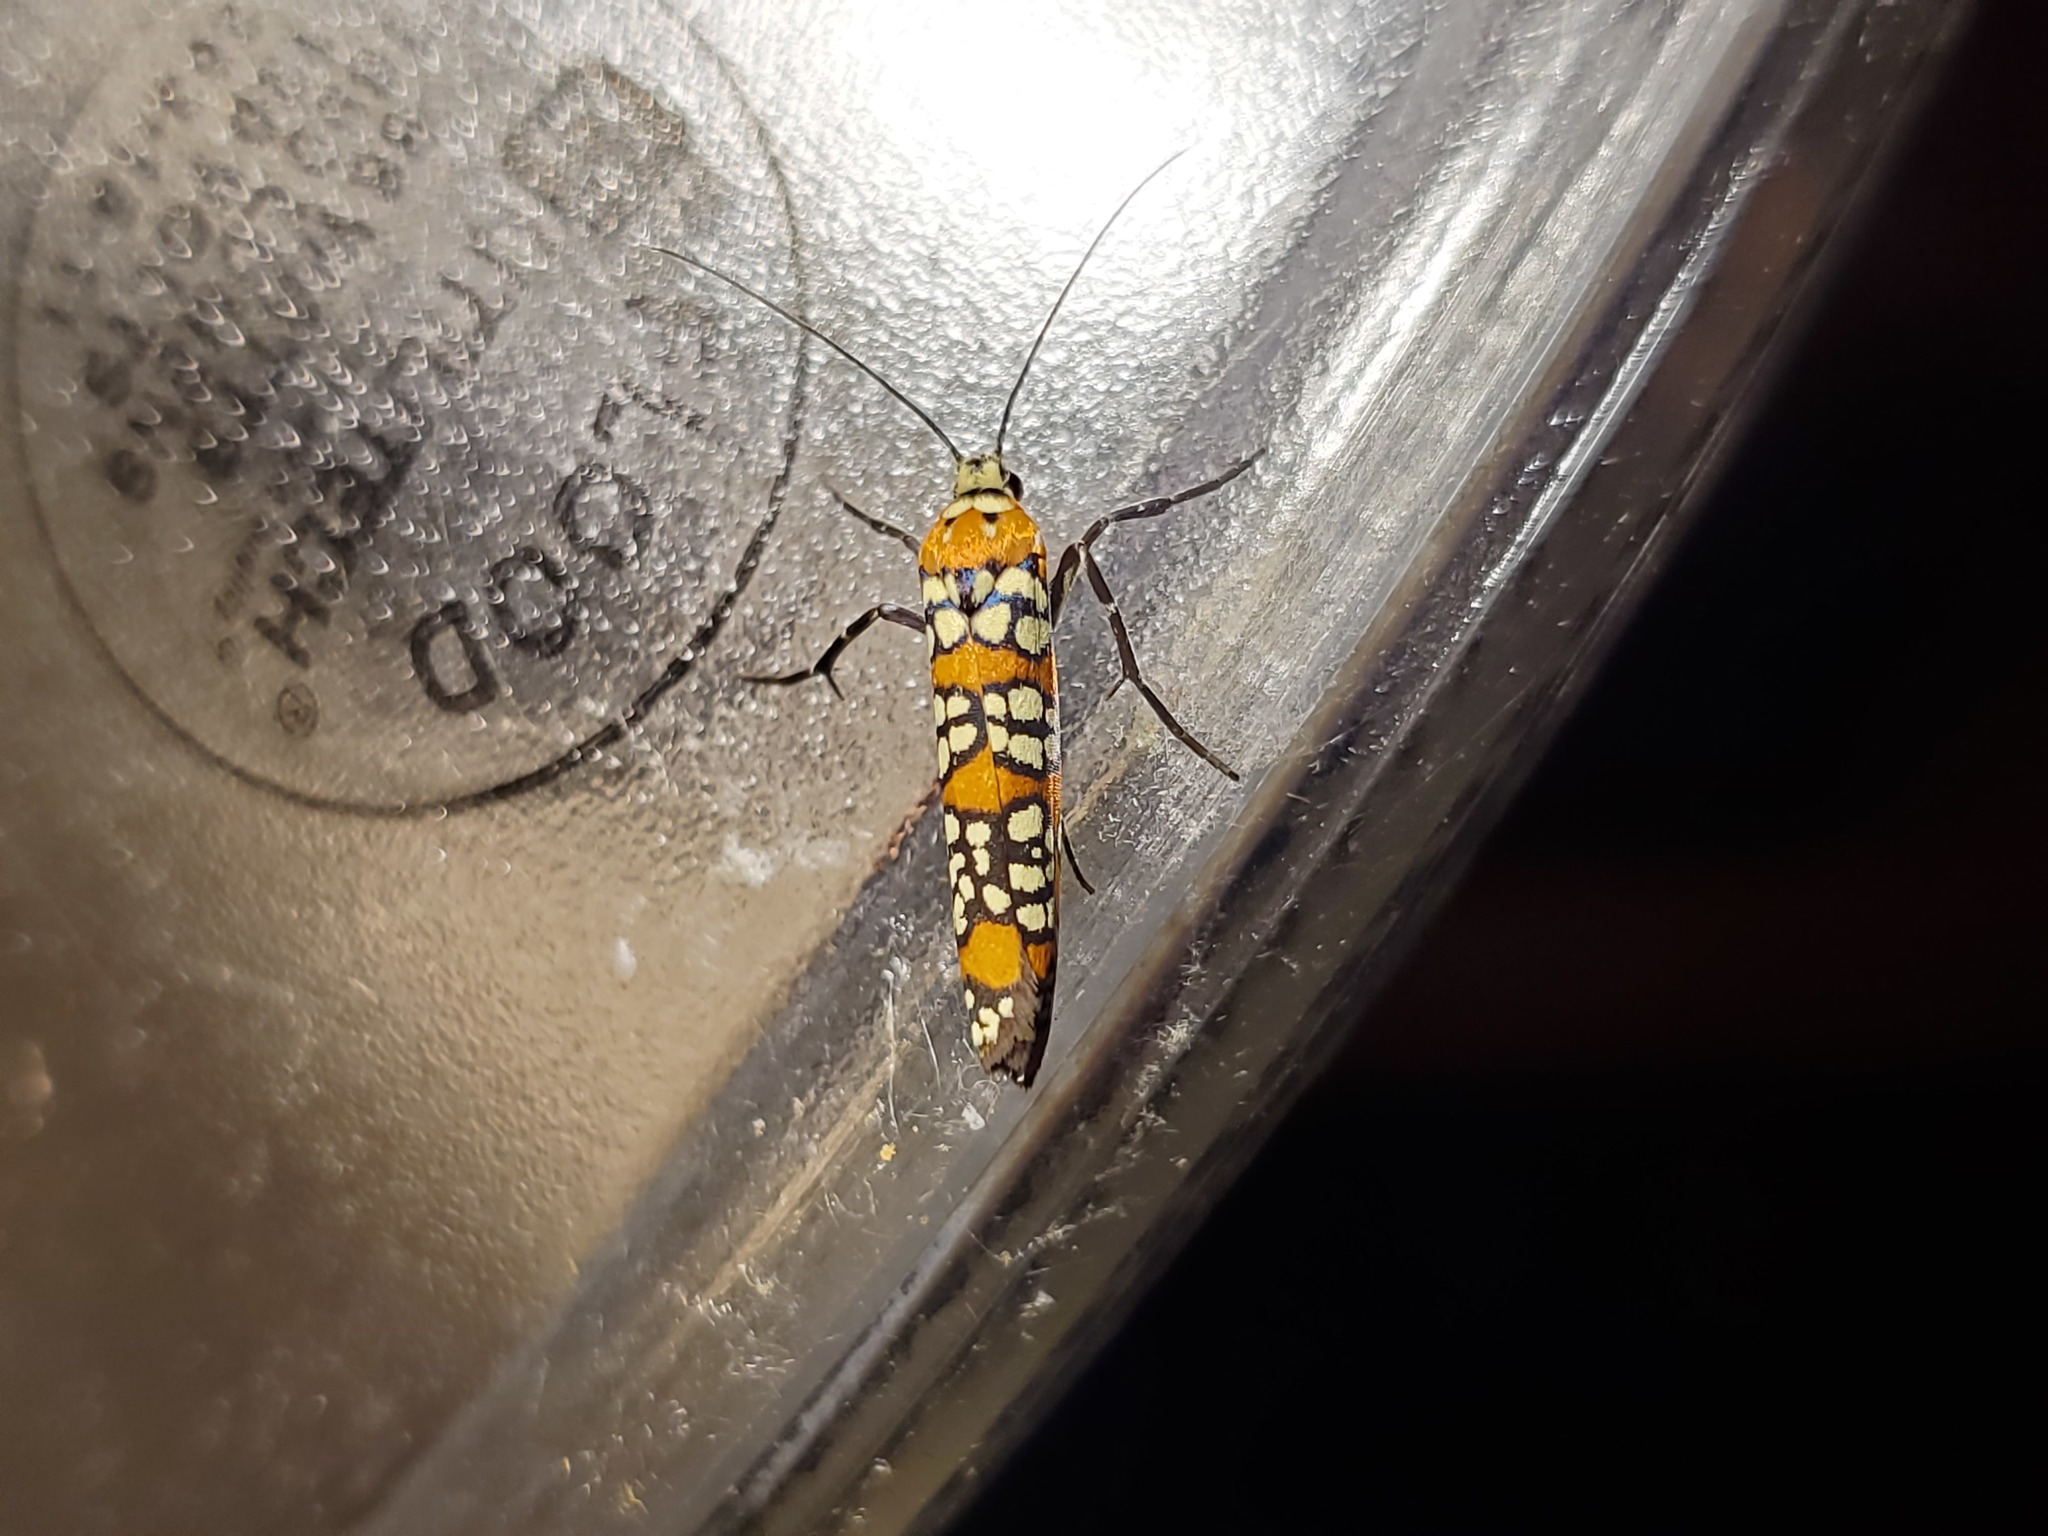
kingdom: Animalia
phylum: Arthropoda
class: Insecta
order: Lepidoptera
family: Attevidae
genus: Atteva
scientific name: Atteva punctella
